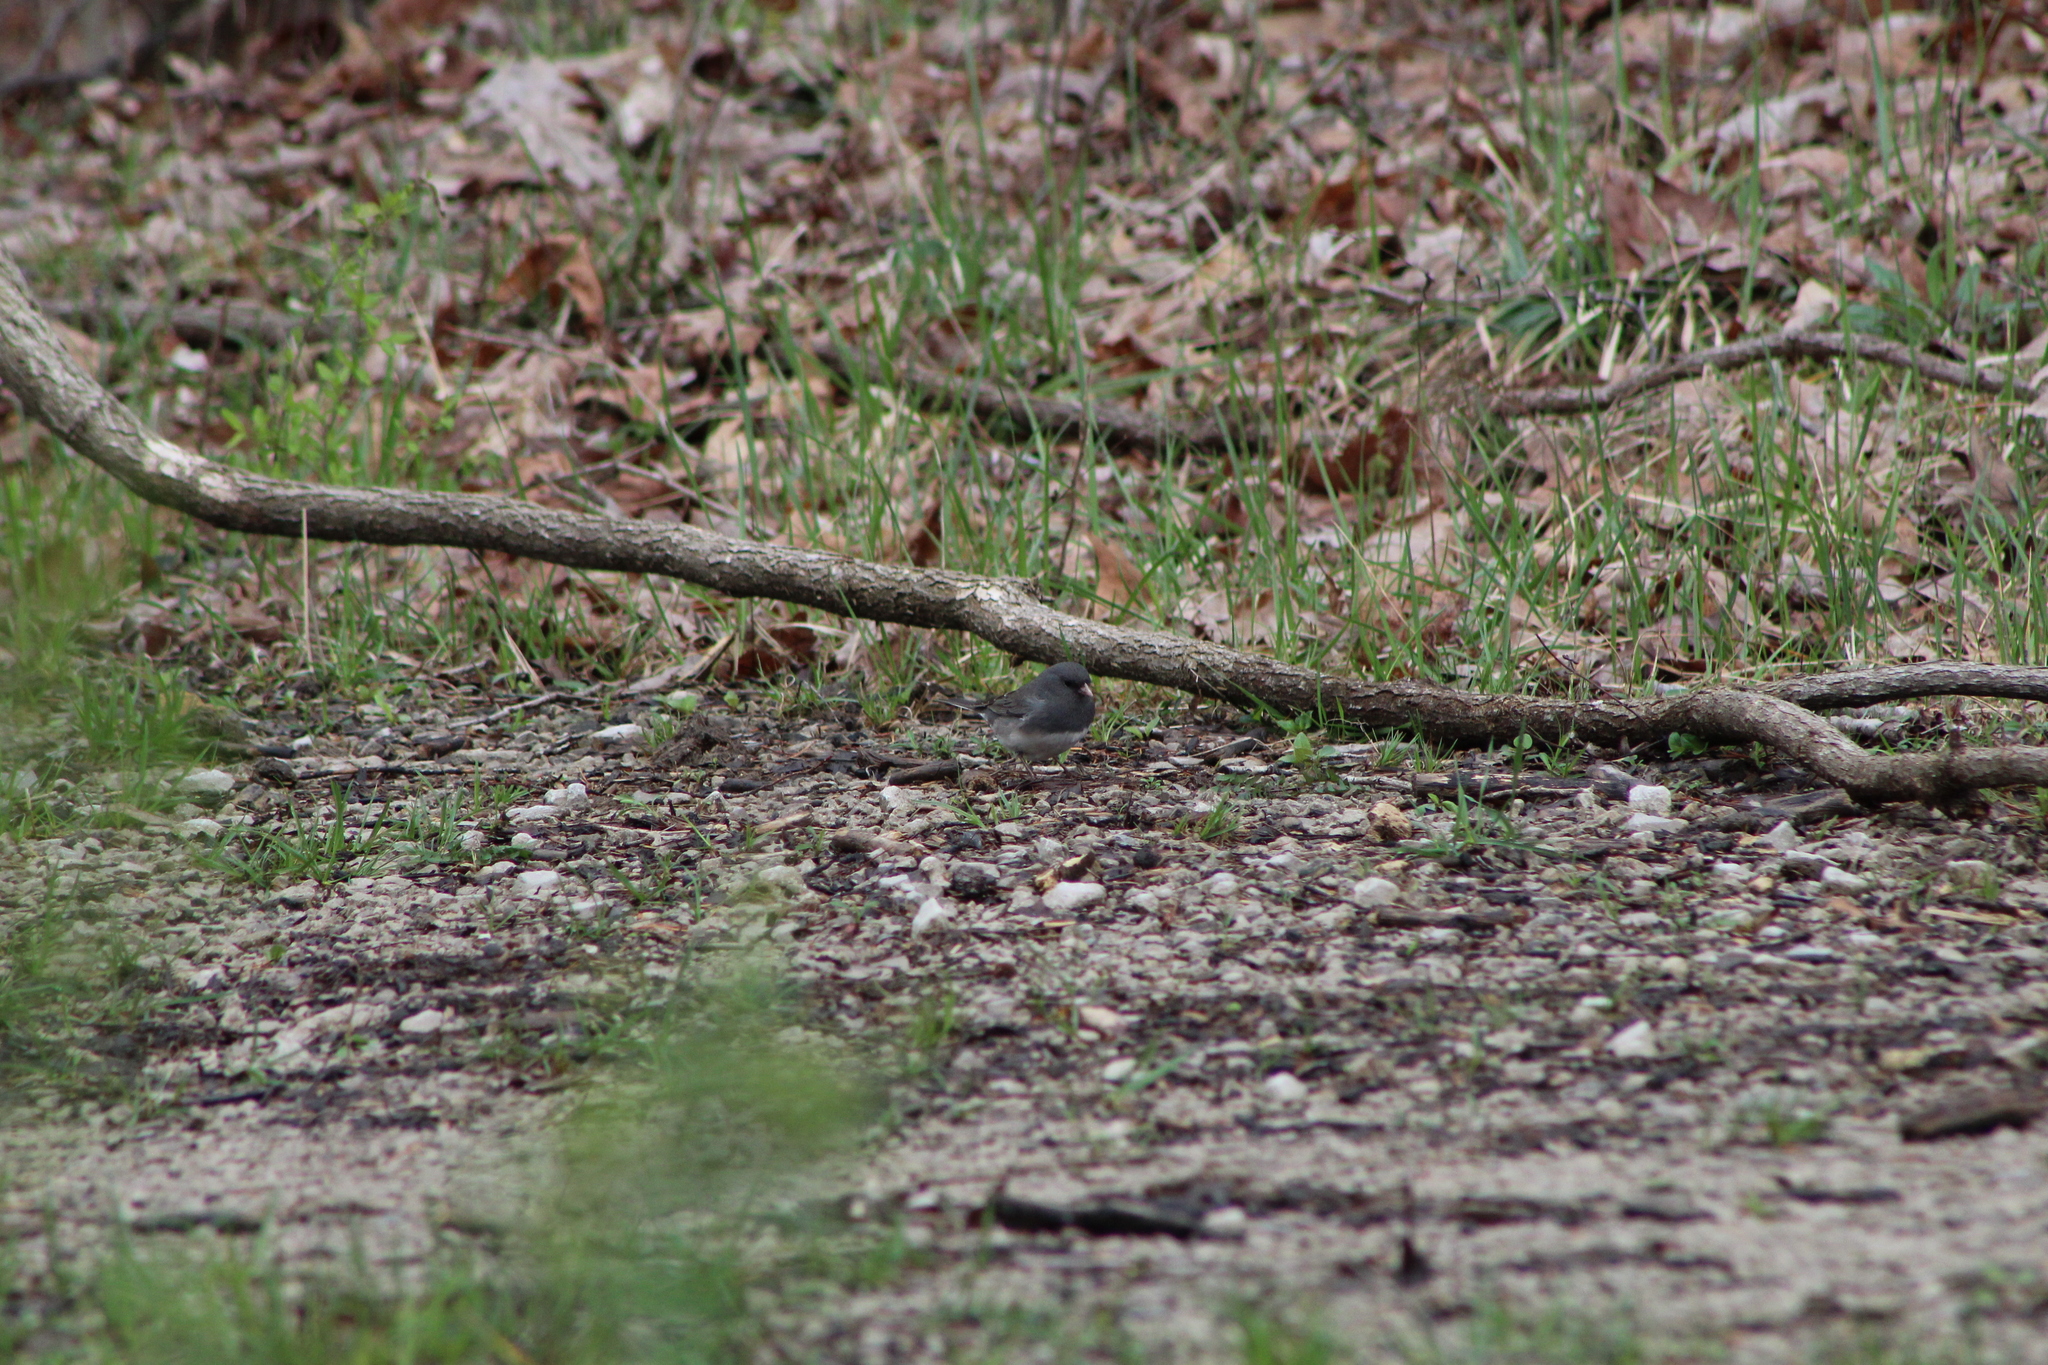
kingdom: Animalia
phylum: Chordata
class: Aves
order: Passeriformes
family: Passerellidae
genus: Junco
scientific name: Junco hyemalis
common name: Dark-eyed junco
